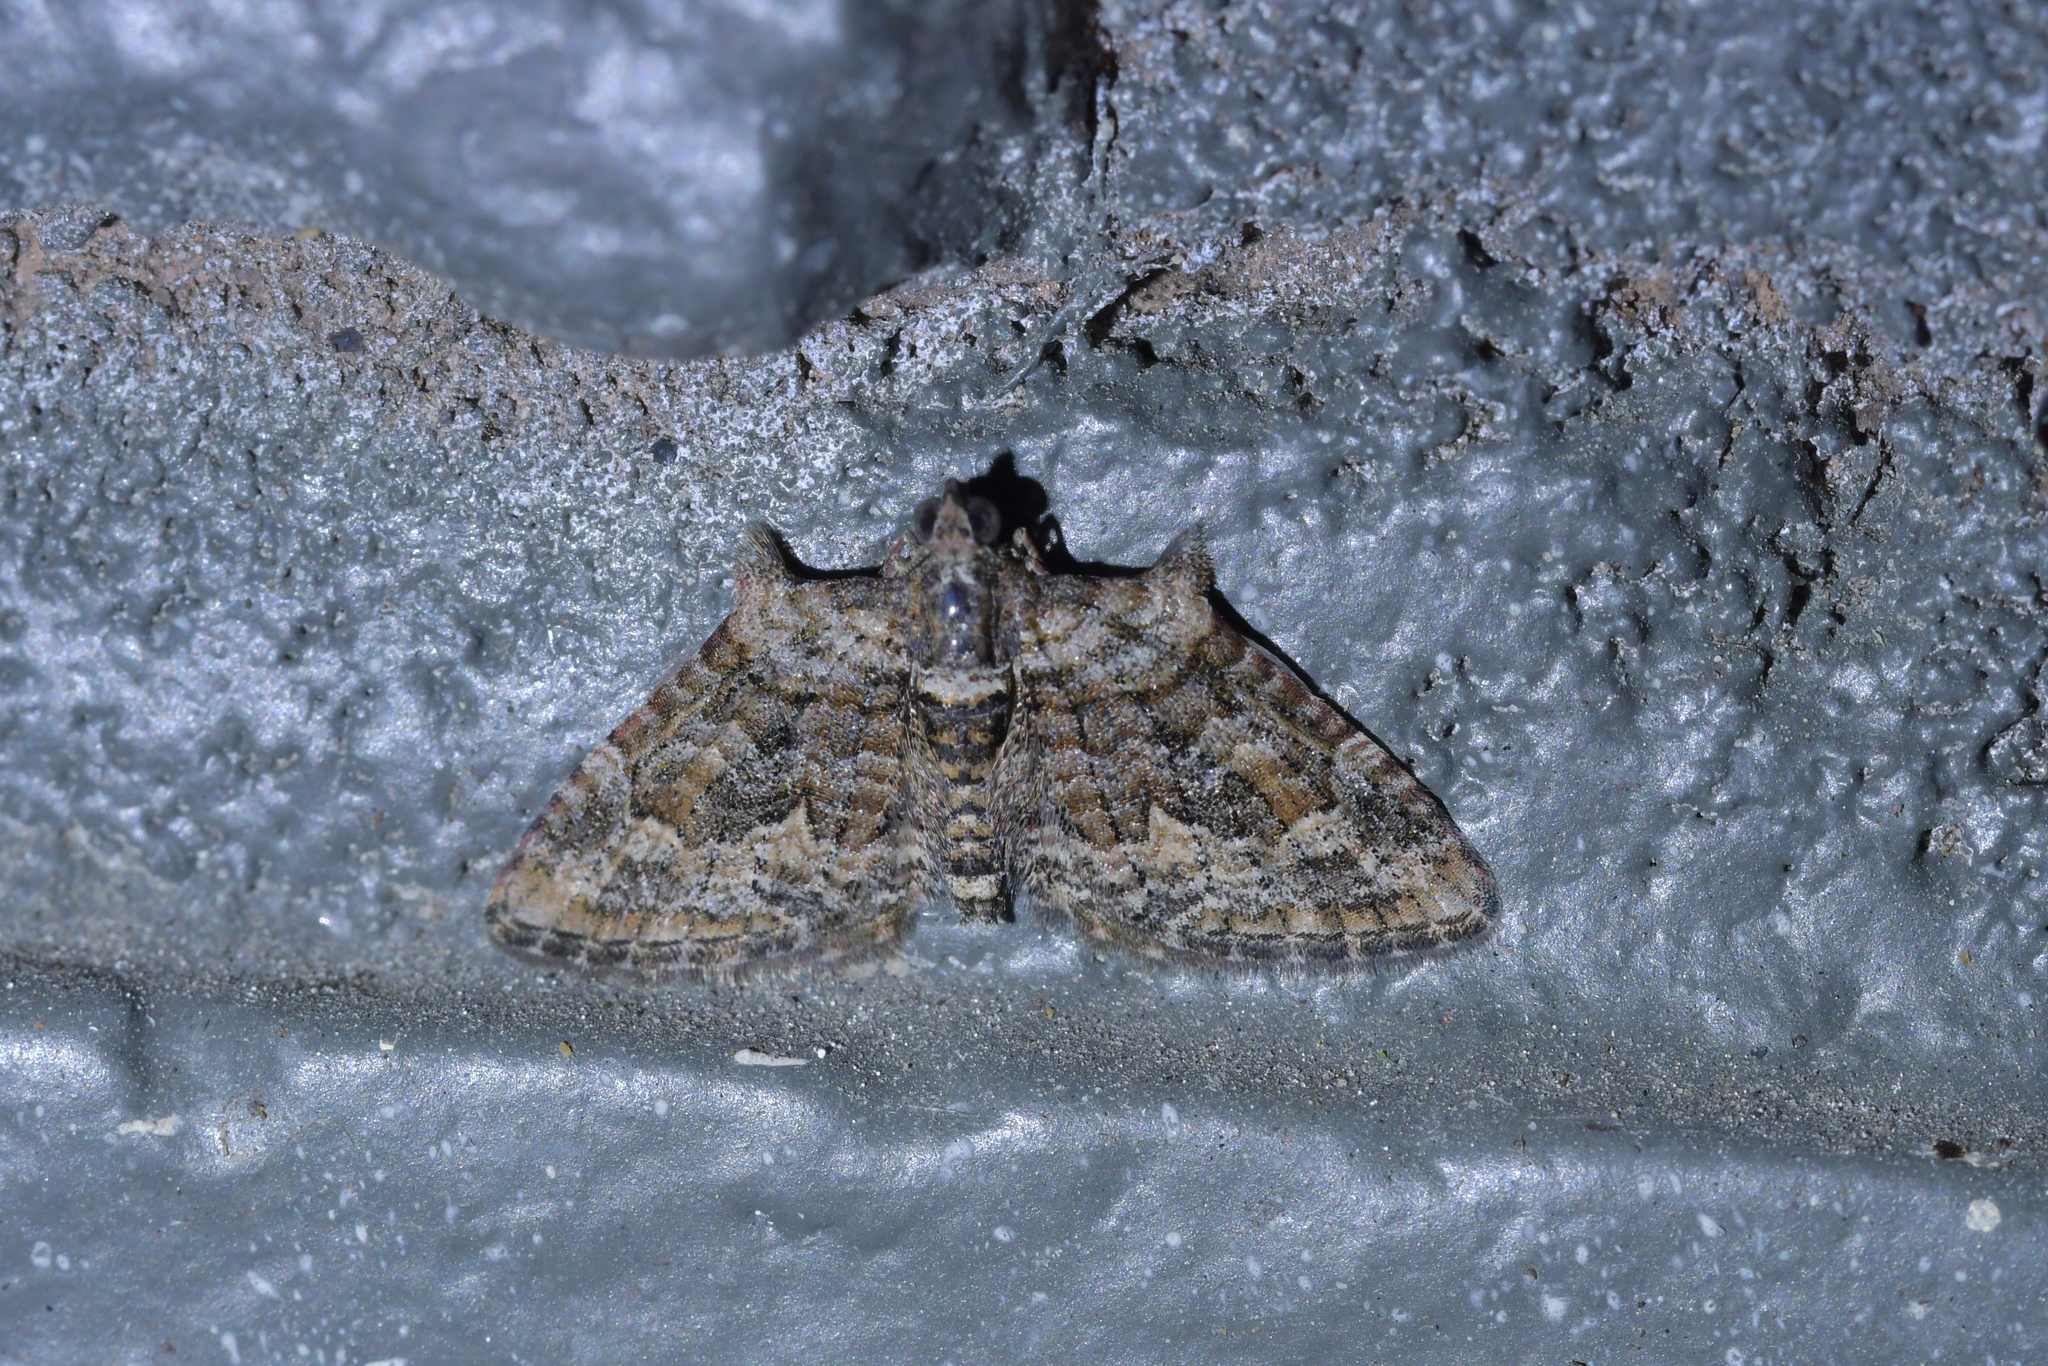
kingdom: Animalia
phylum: Arthropoda
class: Insecta
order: Lepidoptera
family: Geometridae
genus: Phrissogonus
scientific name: Phrissogonus laticostata
